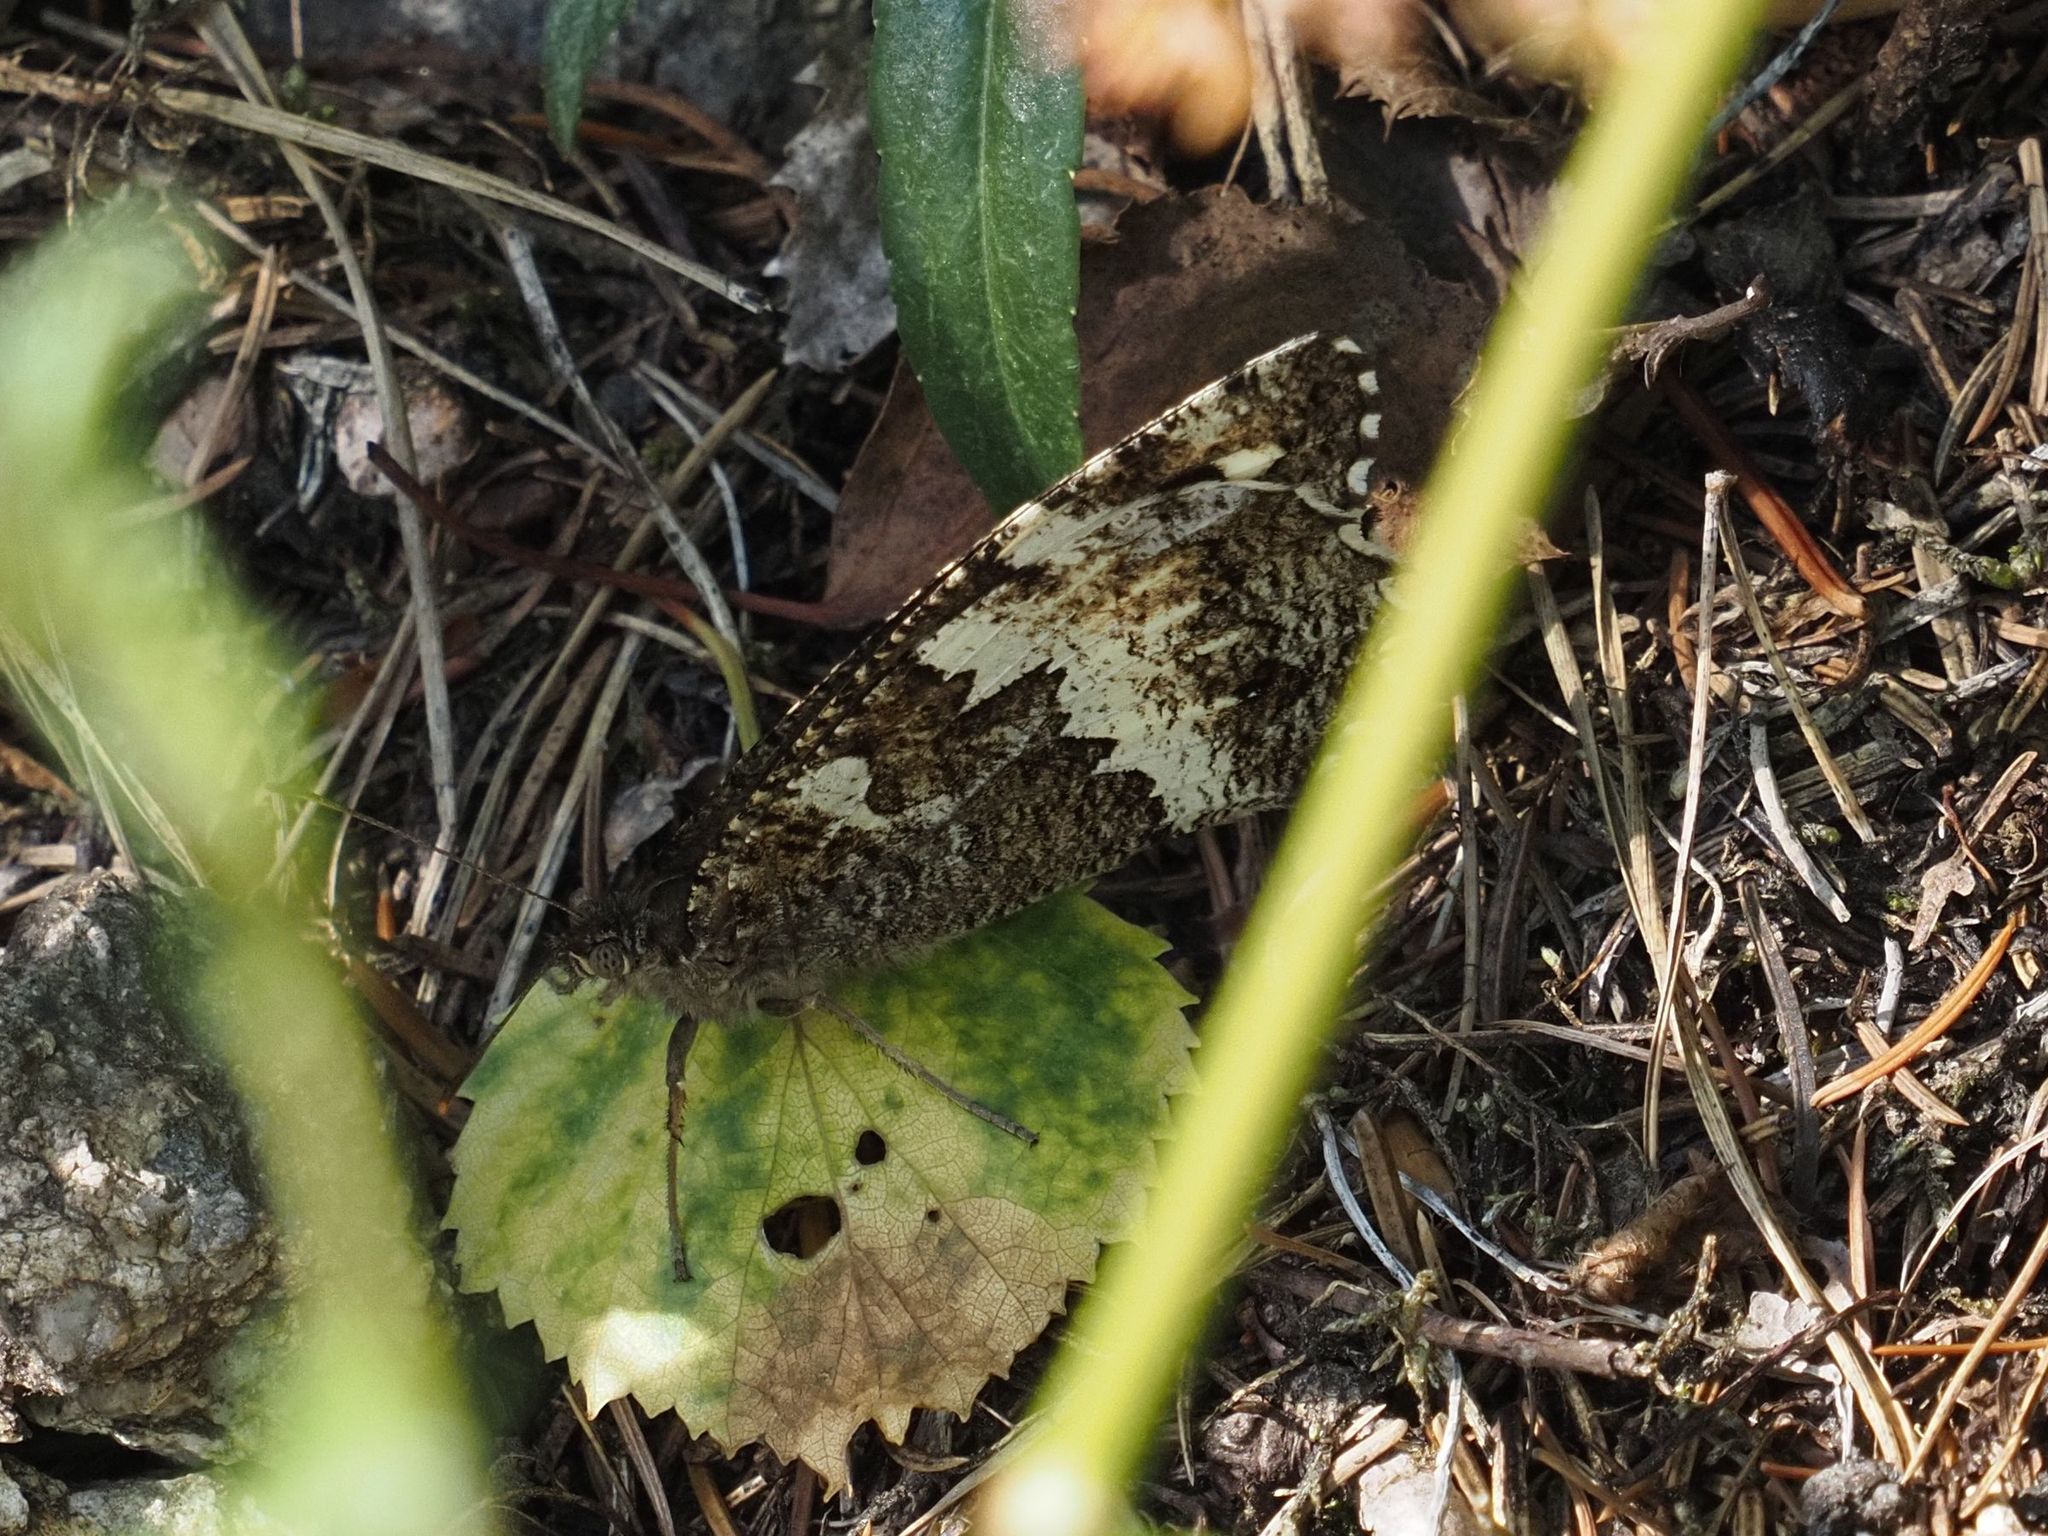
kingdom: Animalia
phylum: Arthropoda
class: Insecta
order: Lepidoptera
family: Lycaenidae
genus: Loweia
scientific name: Loweia tityrus
